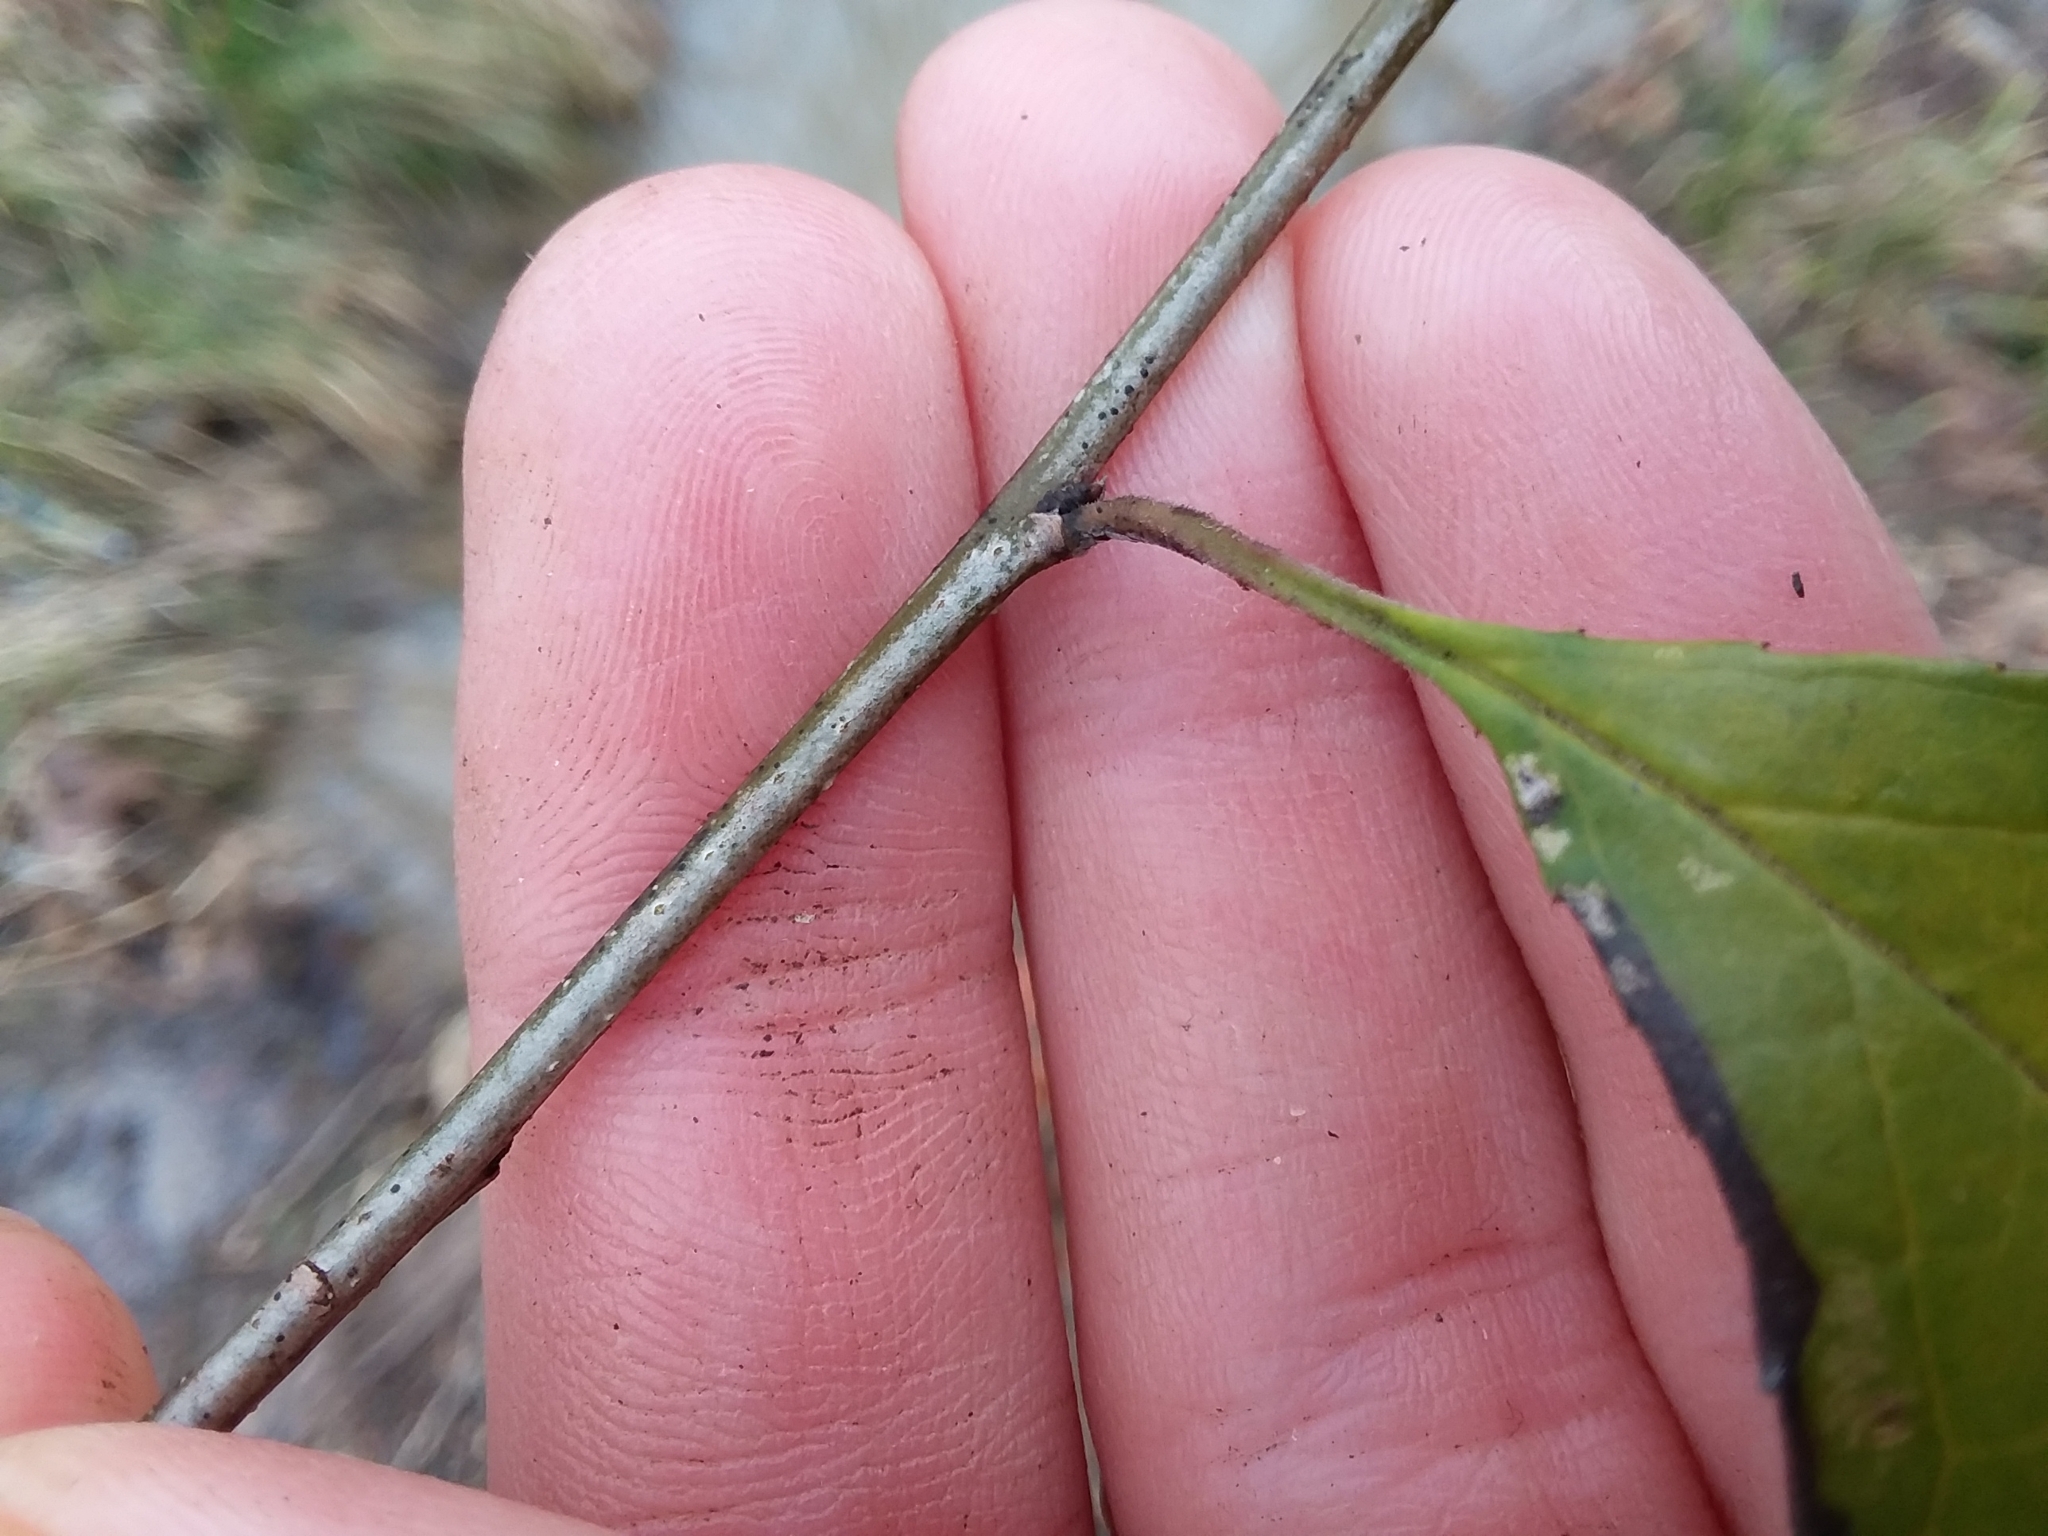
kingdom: Plantae
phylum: Tracheophyta
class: Magnoliopsida
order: Aquifoliales
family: Aquifoliaceae
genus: Ilex
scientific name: Ilex decidua
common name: Possum-haw
